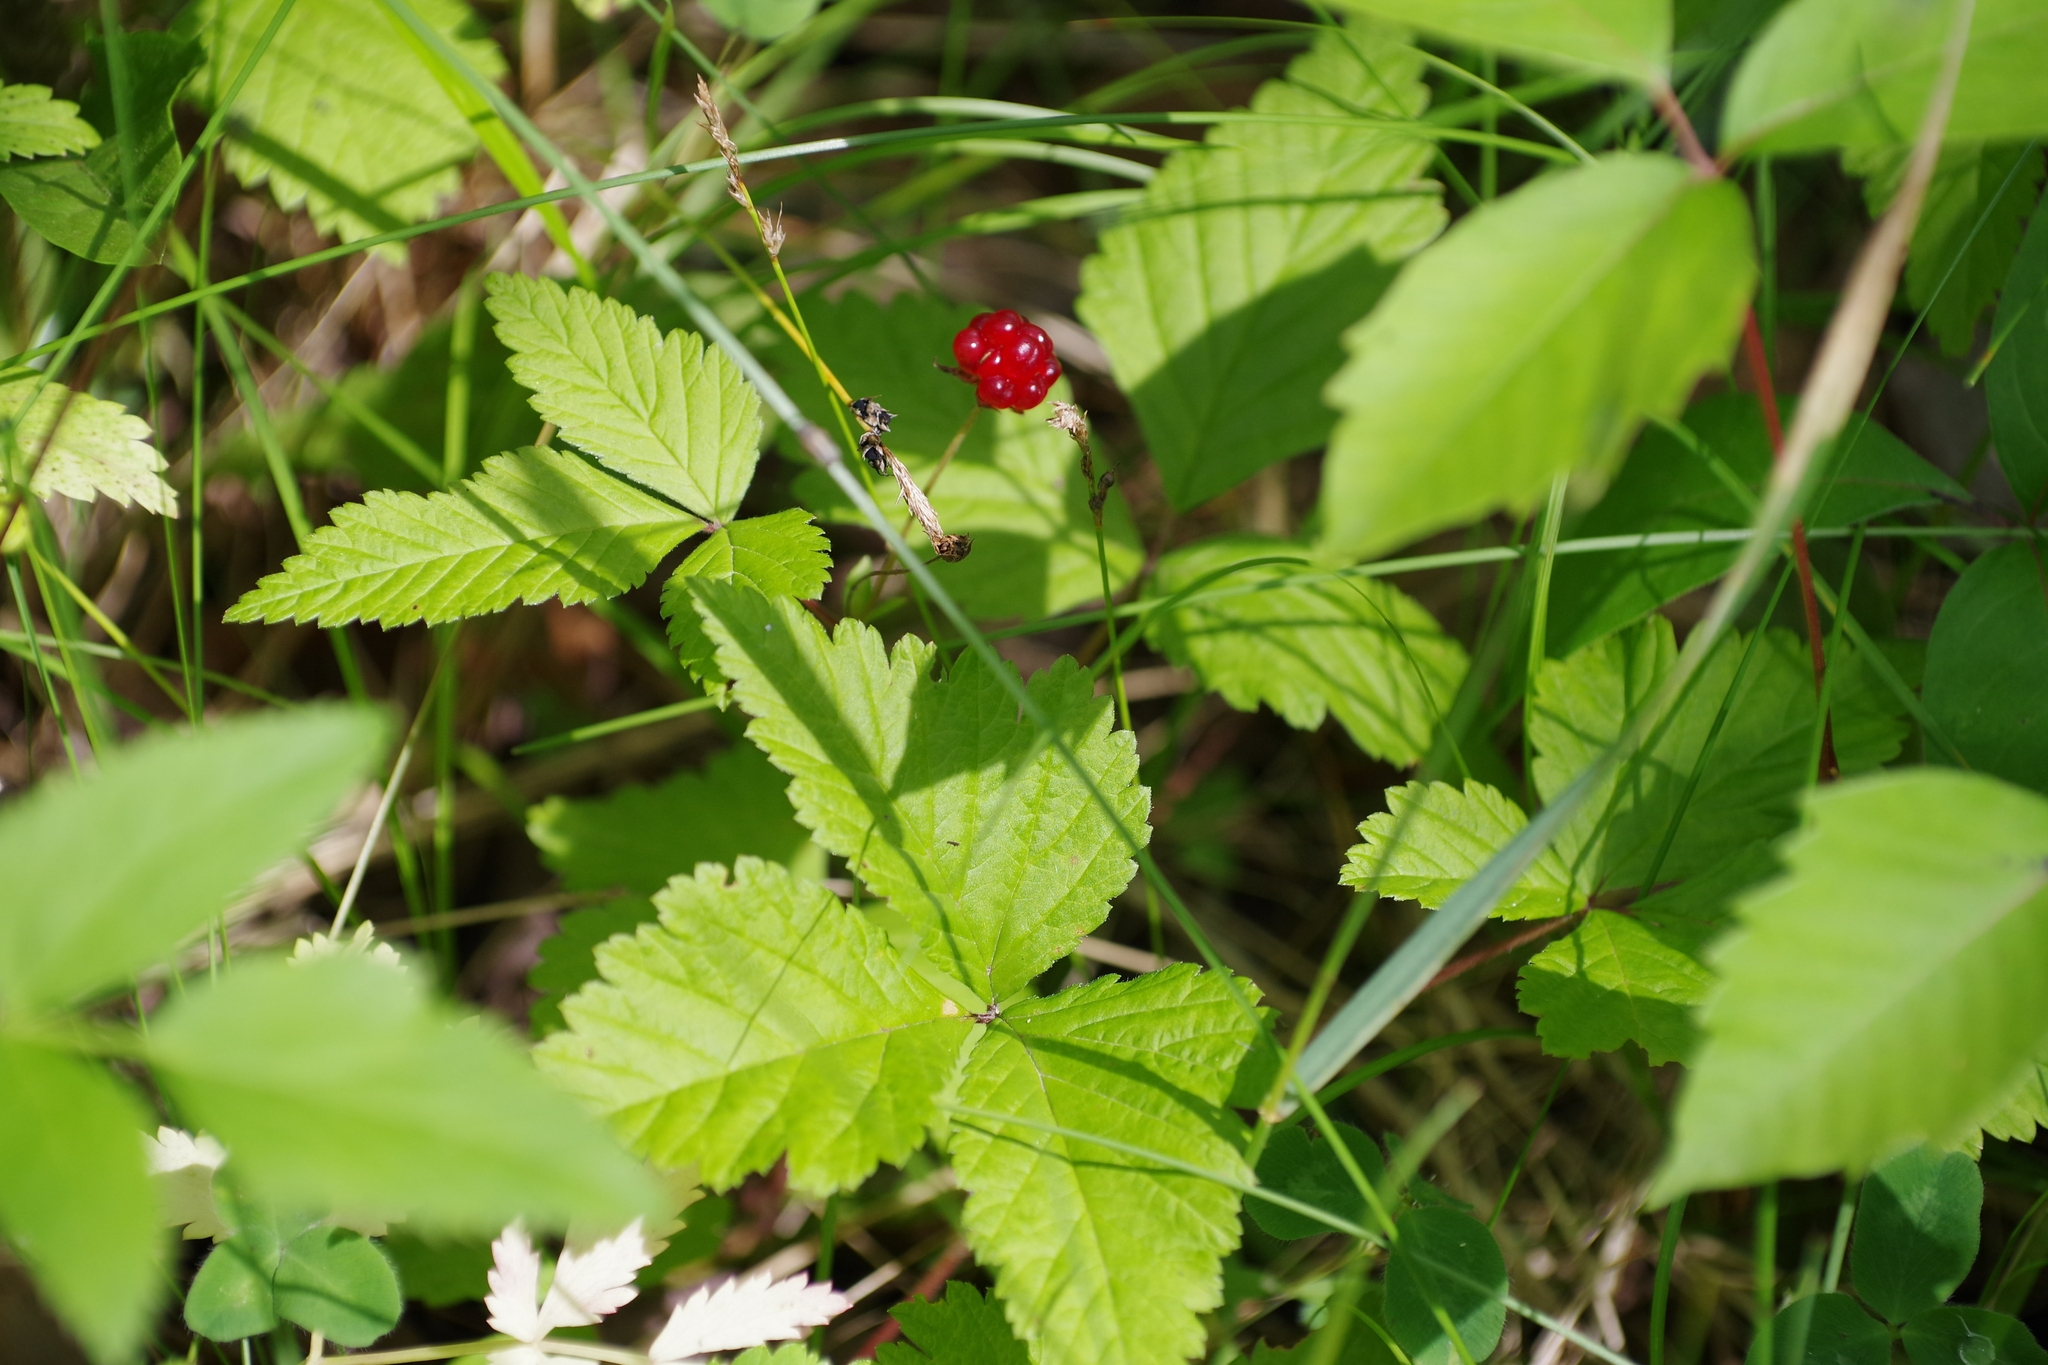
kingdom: Plantae
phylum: Tracheophyta
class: Magnoliopsida
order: Rosales
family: Rosaceae
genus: Rubus
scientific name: Rubus pubescens
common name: Dwarf raspberry
